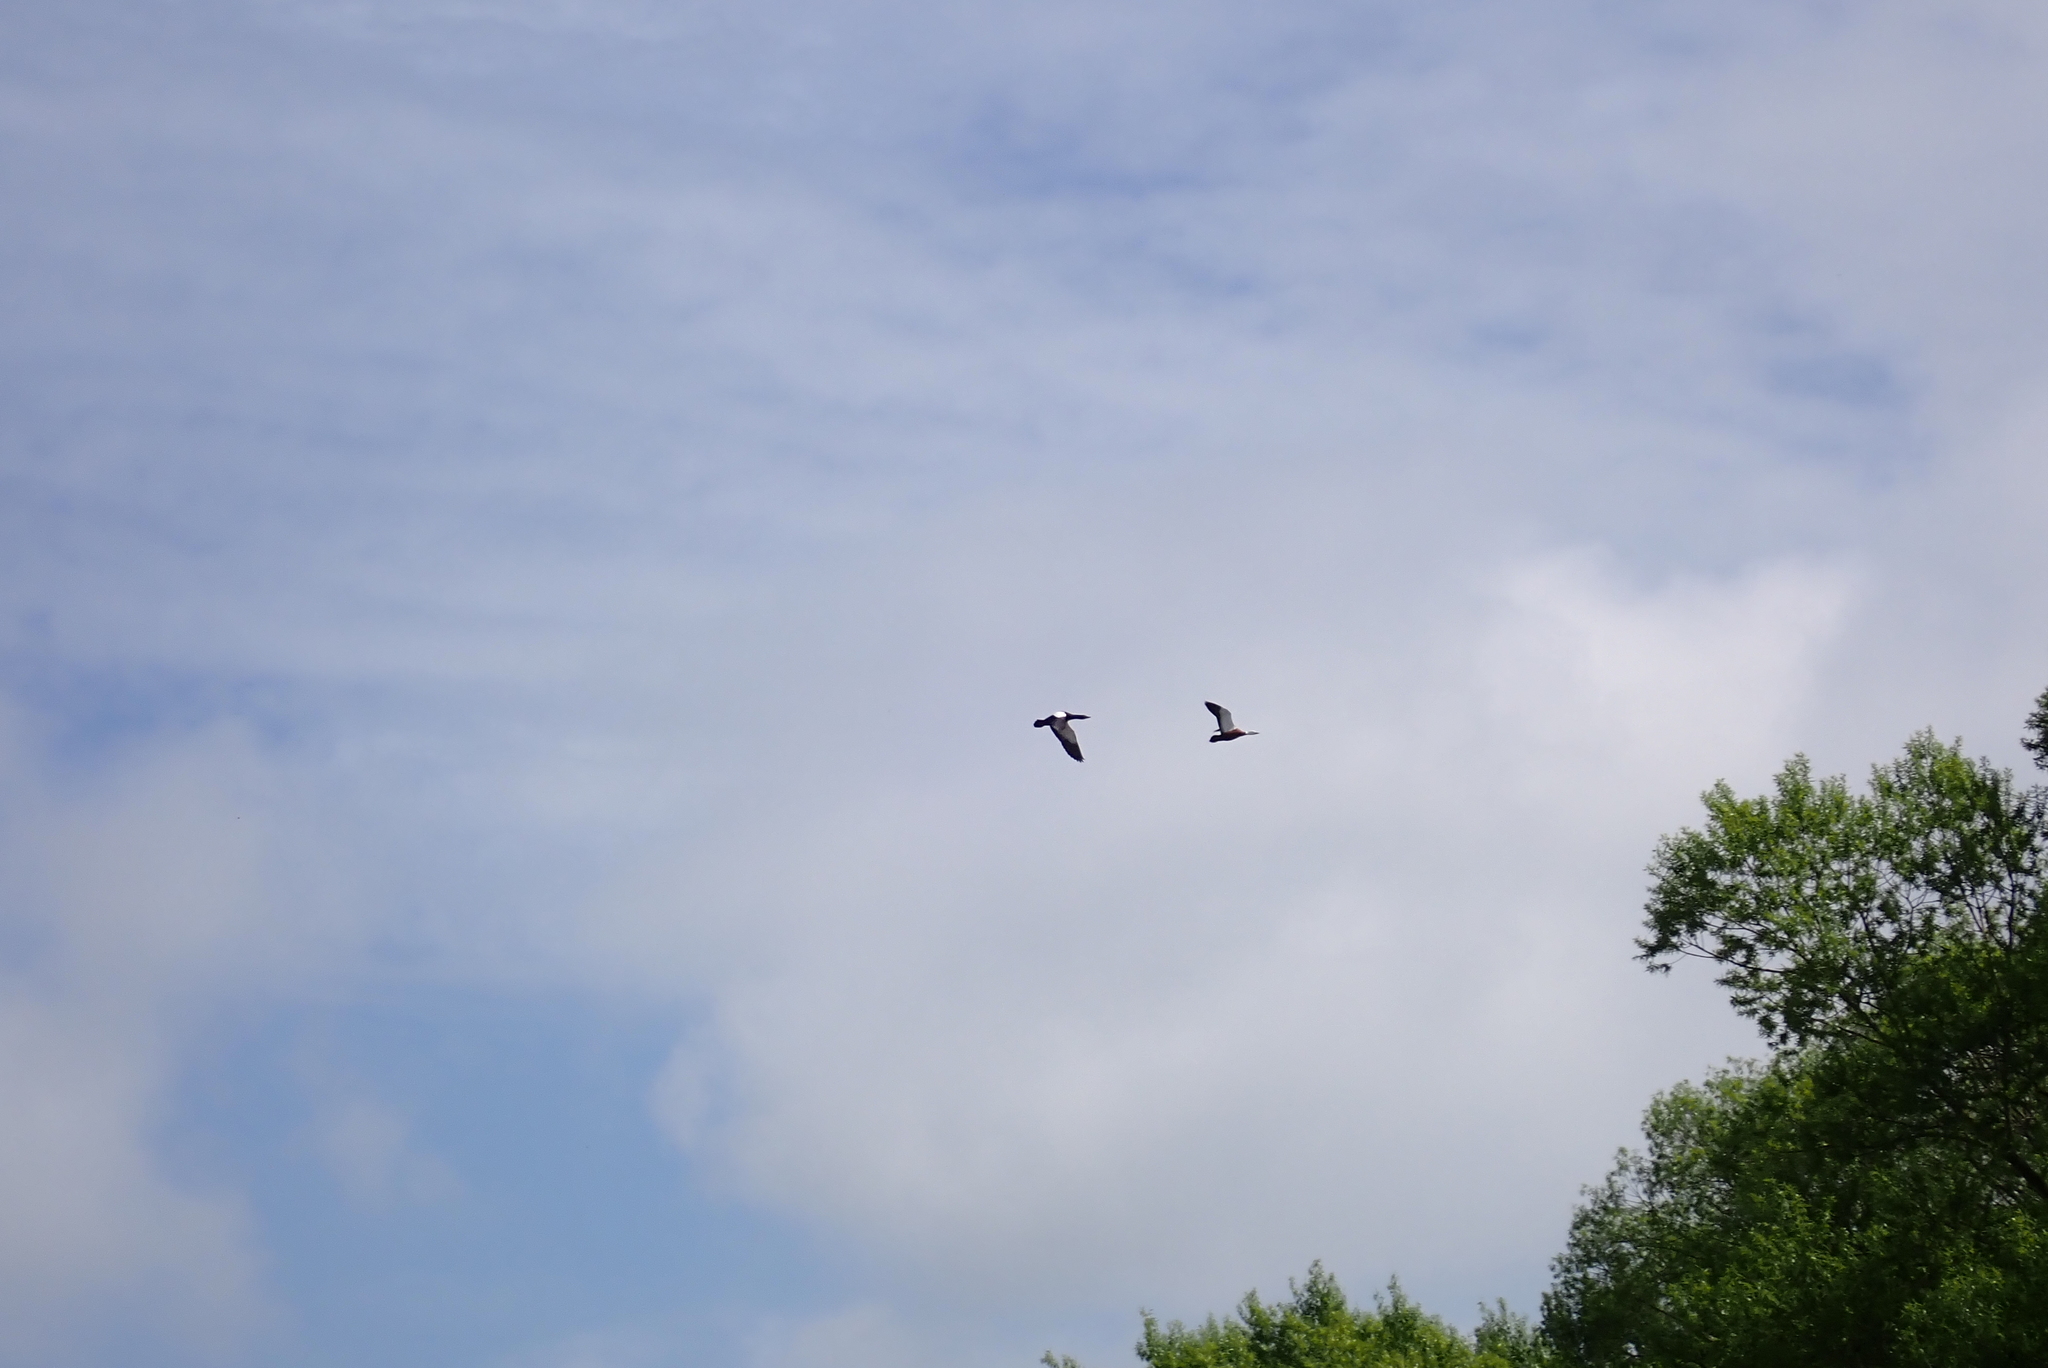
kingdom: Animalia
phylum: Chordata
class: Aves
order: Anseriformes
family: Anatidae
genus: Tadorna
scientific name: Tadorna variegata
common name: Paradise shelduck
